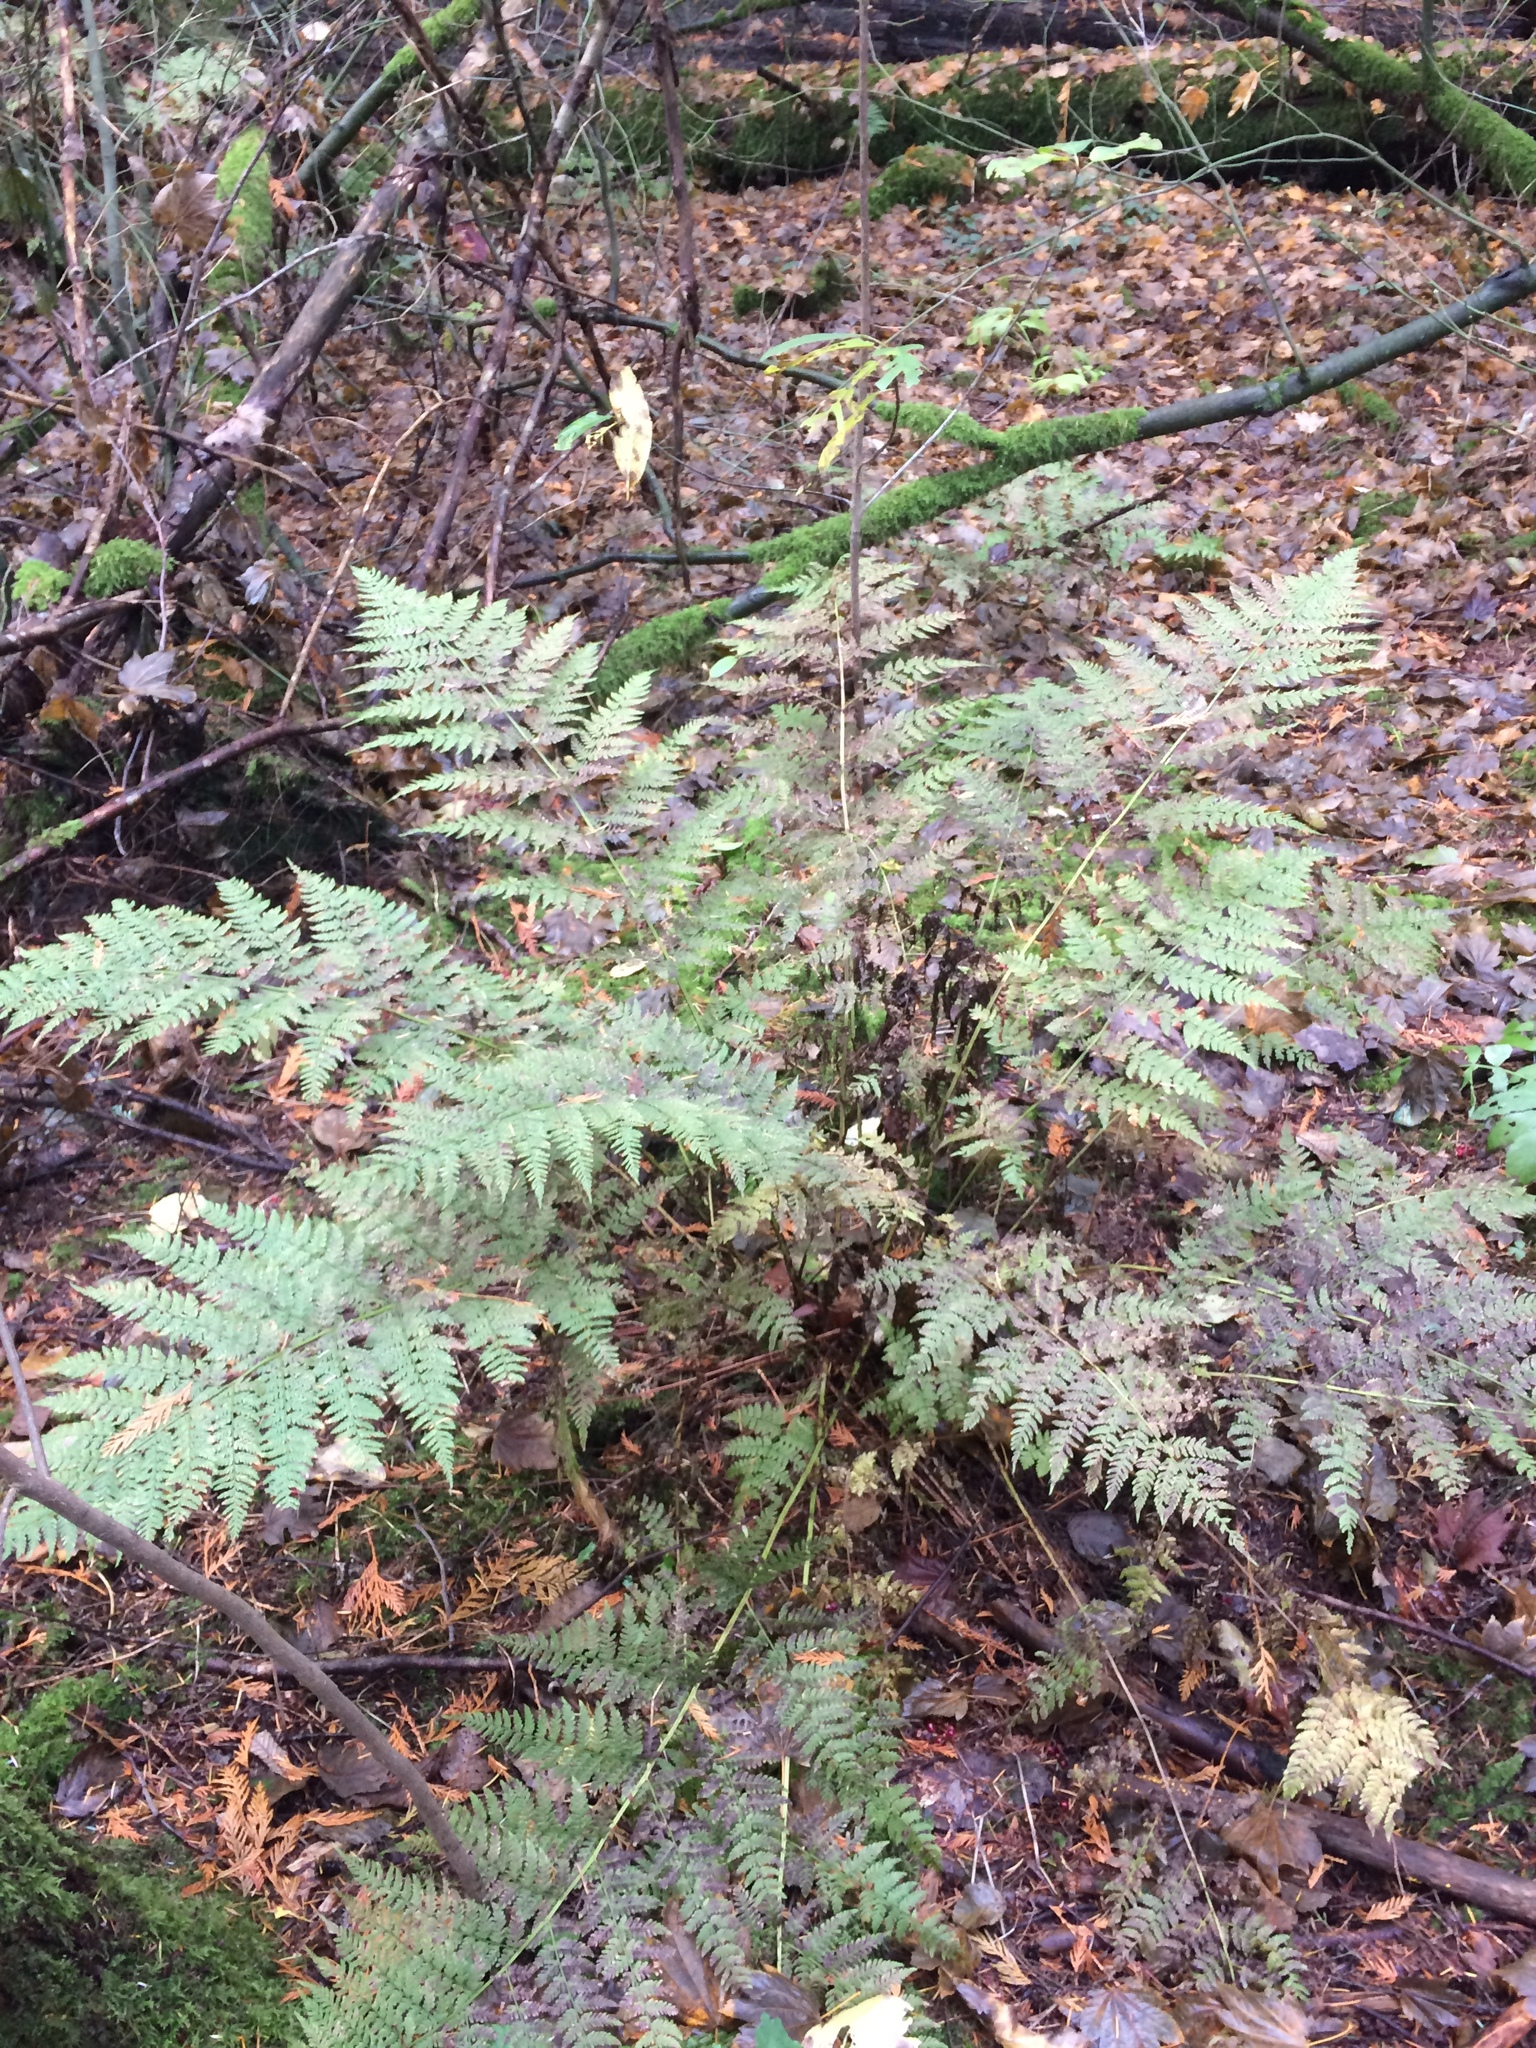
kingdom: Plantae
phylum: Tracheophyta
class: Polypodiopsida
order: Polypodiales
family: Dryopteridaceae
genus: Dryopteris
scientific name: Dryopteris expansa
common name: Northern buckler fern
